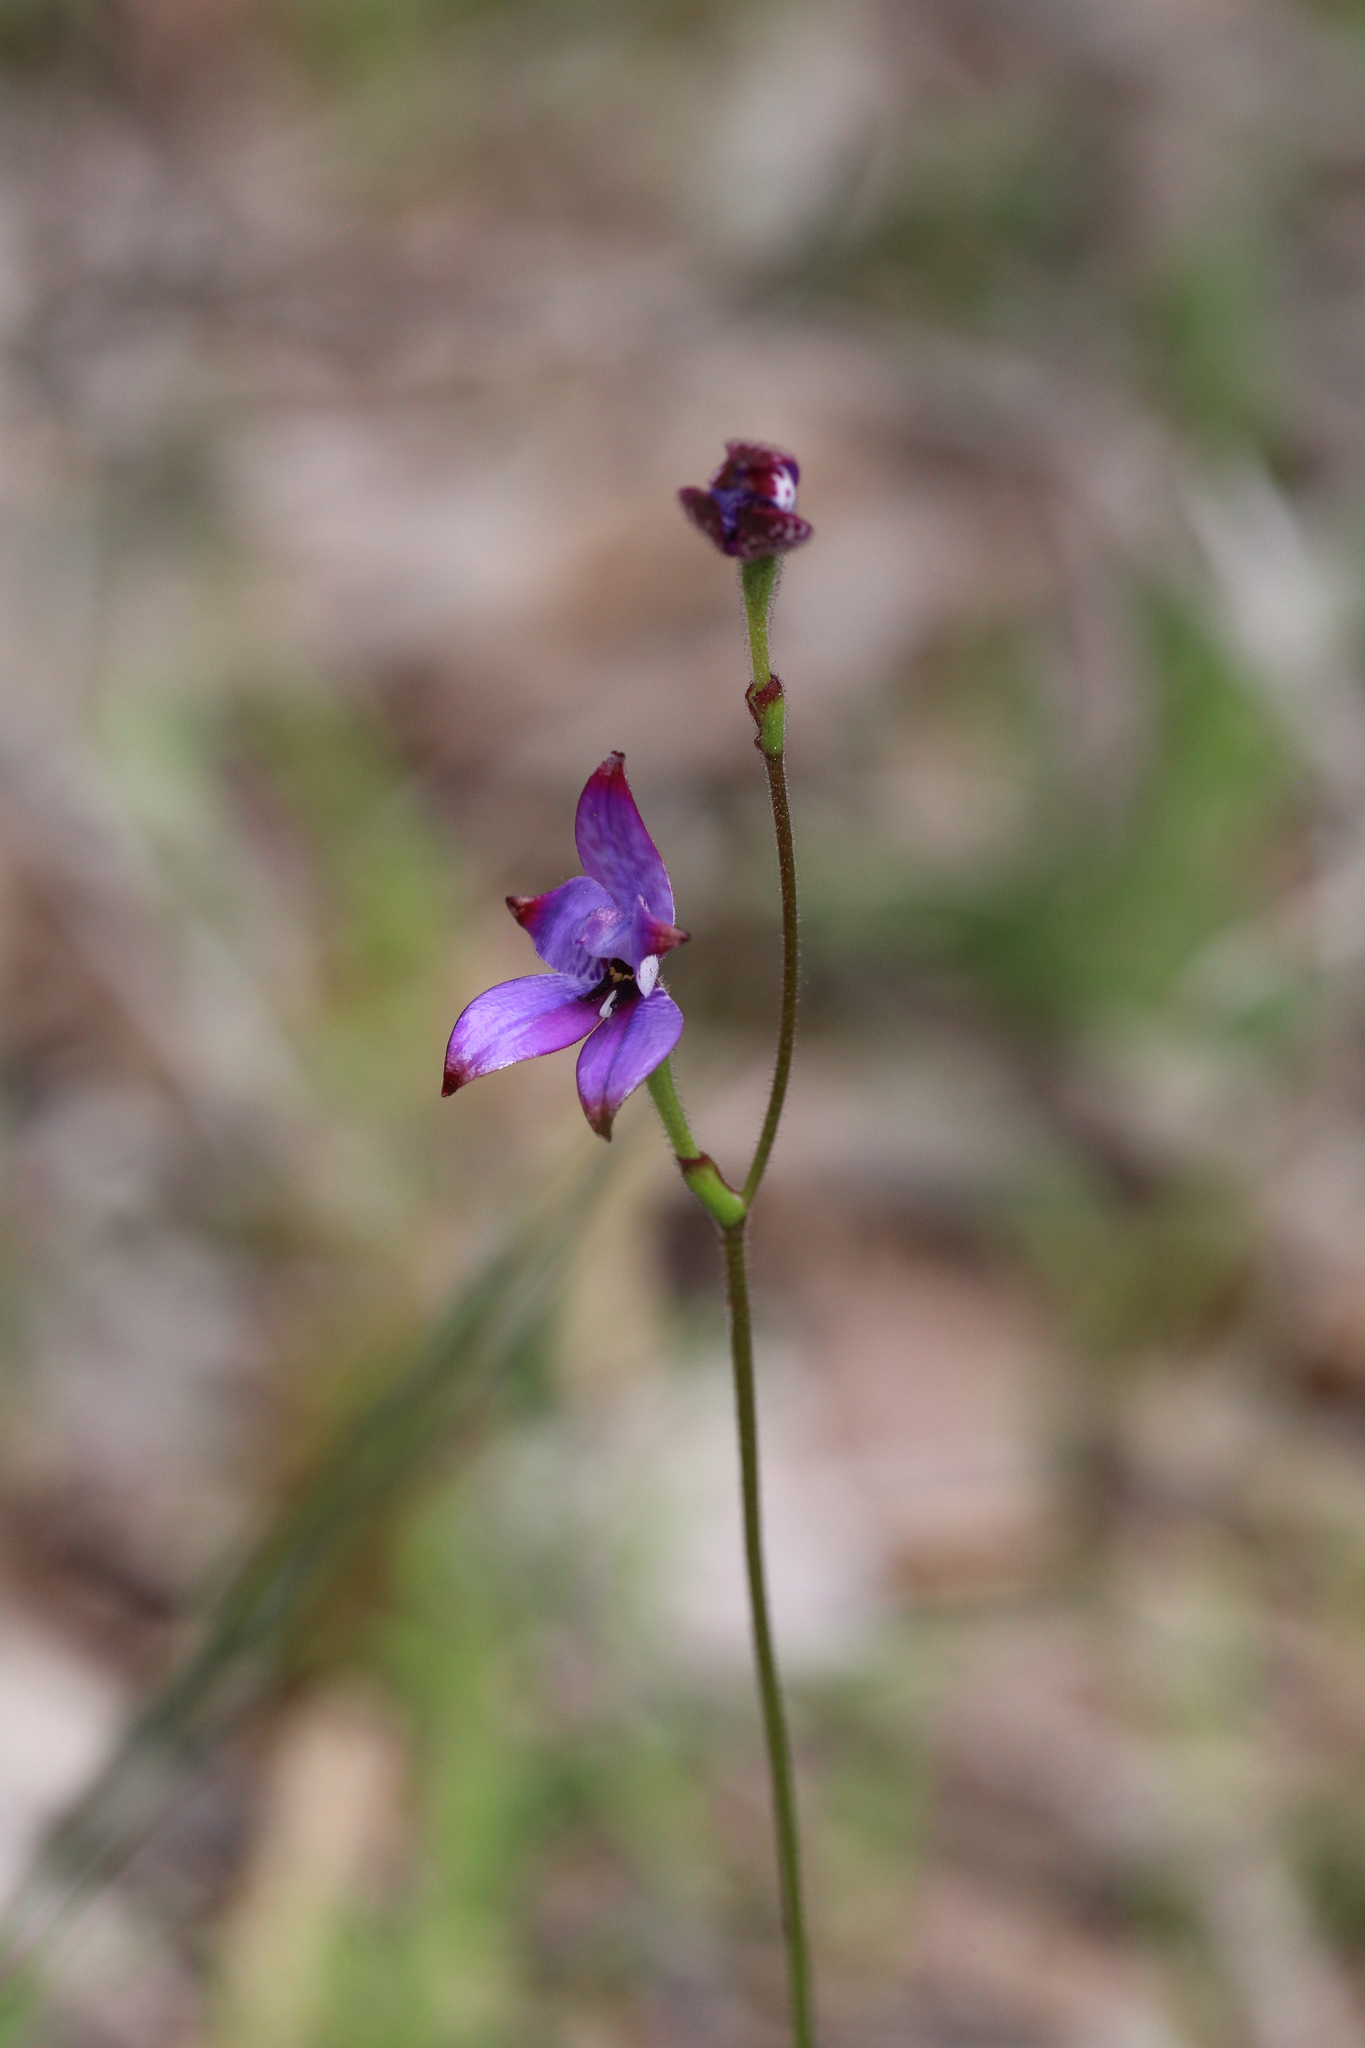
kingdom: Plantae
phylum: Tracheophyta
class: Liliopsida
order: Asparagales
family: Orchidaceae
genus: Caladenia
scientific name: Caladenia brunonis
